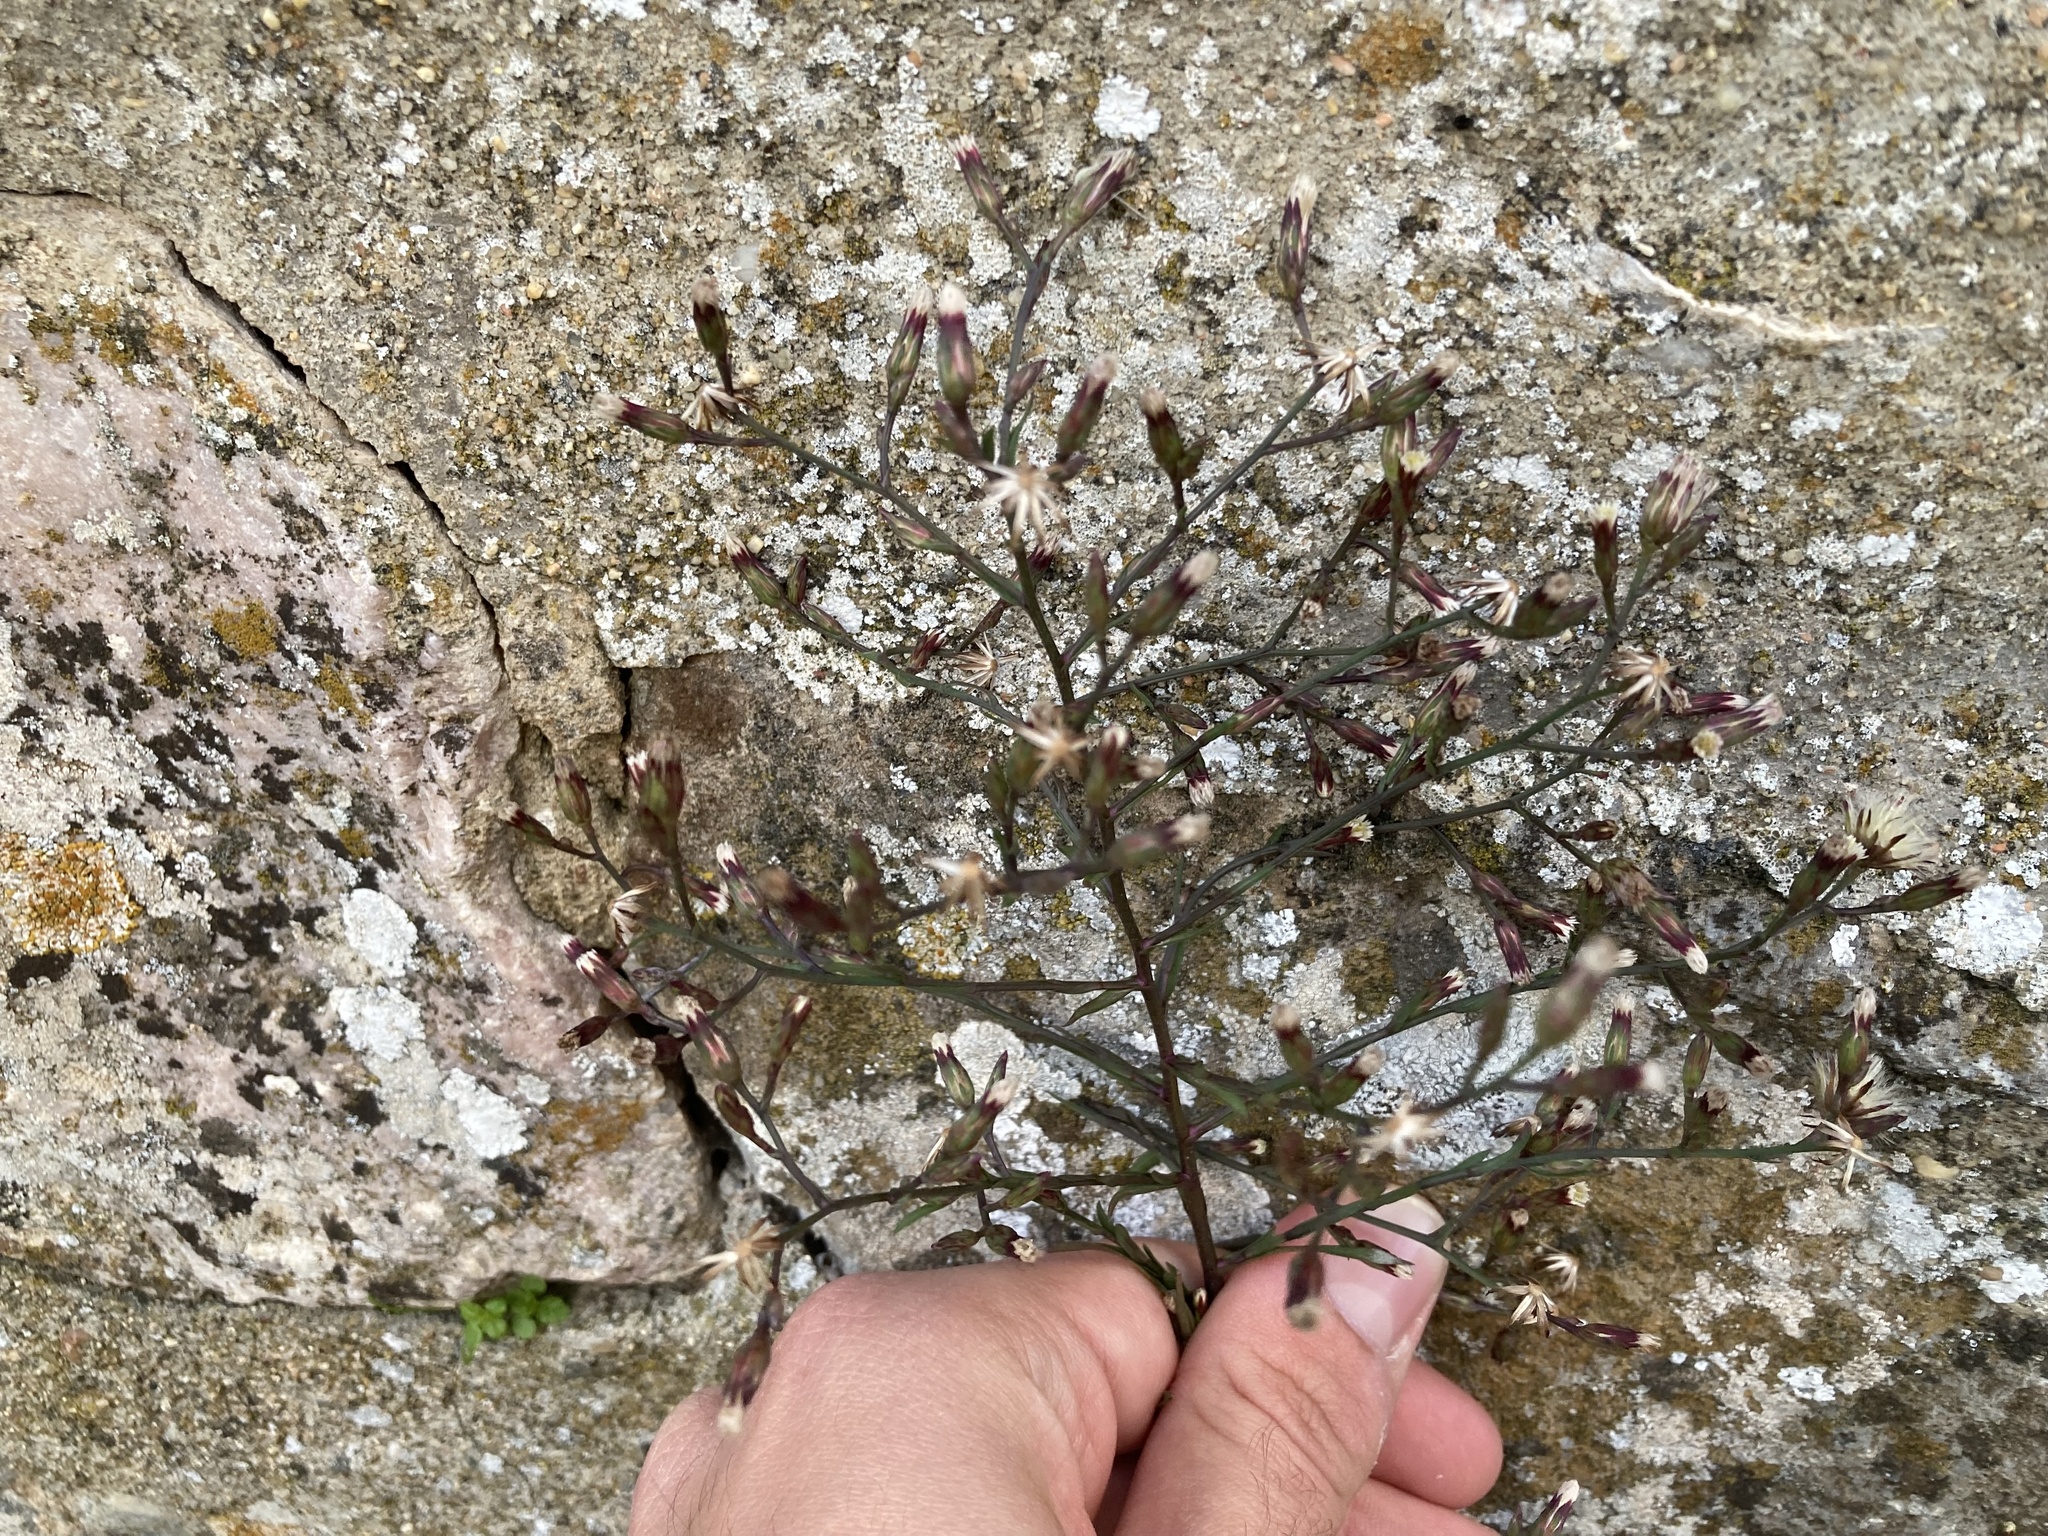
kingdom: Plantae
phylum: Tracheophyta
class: Magnoliopsida
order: Asterales
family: Asteraceae
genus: Symphyotrichum
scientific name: Symphyotrichum squamatum
